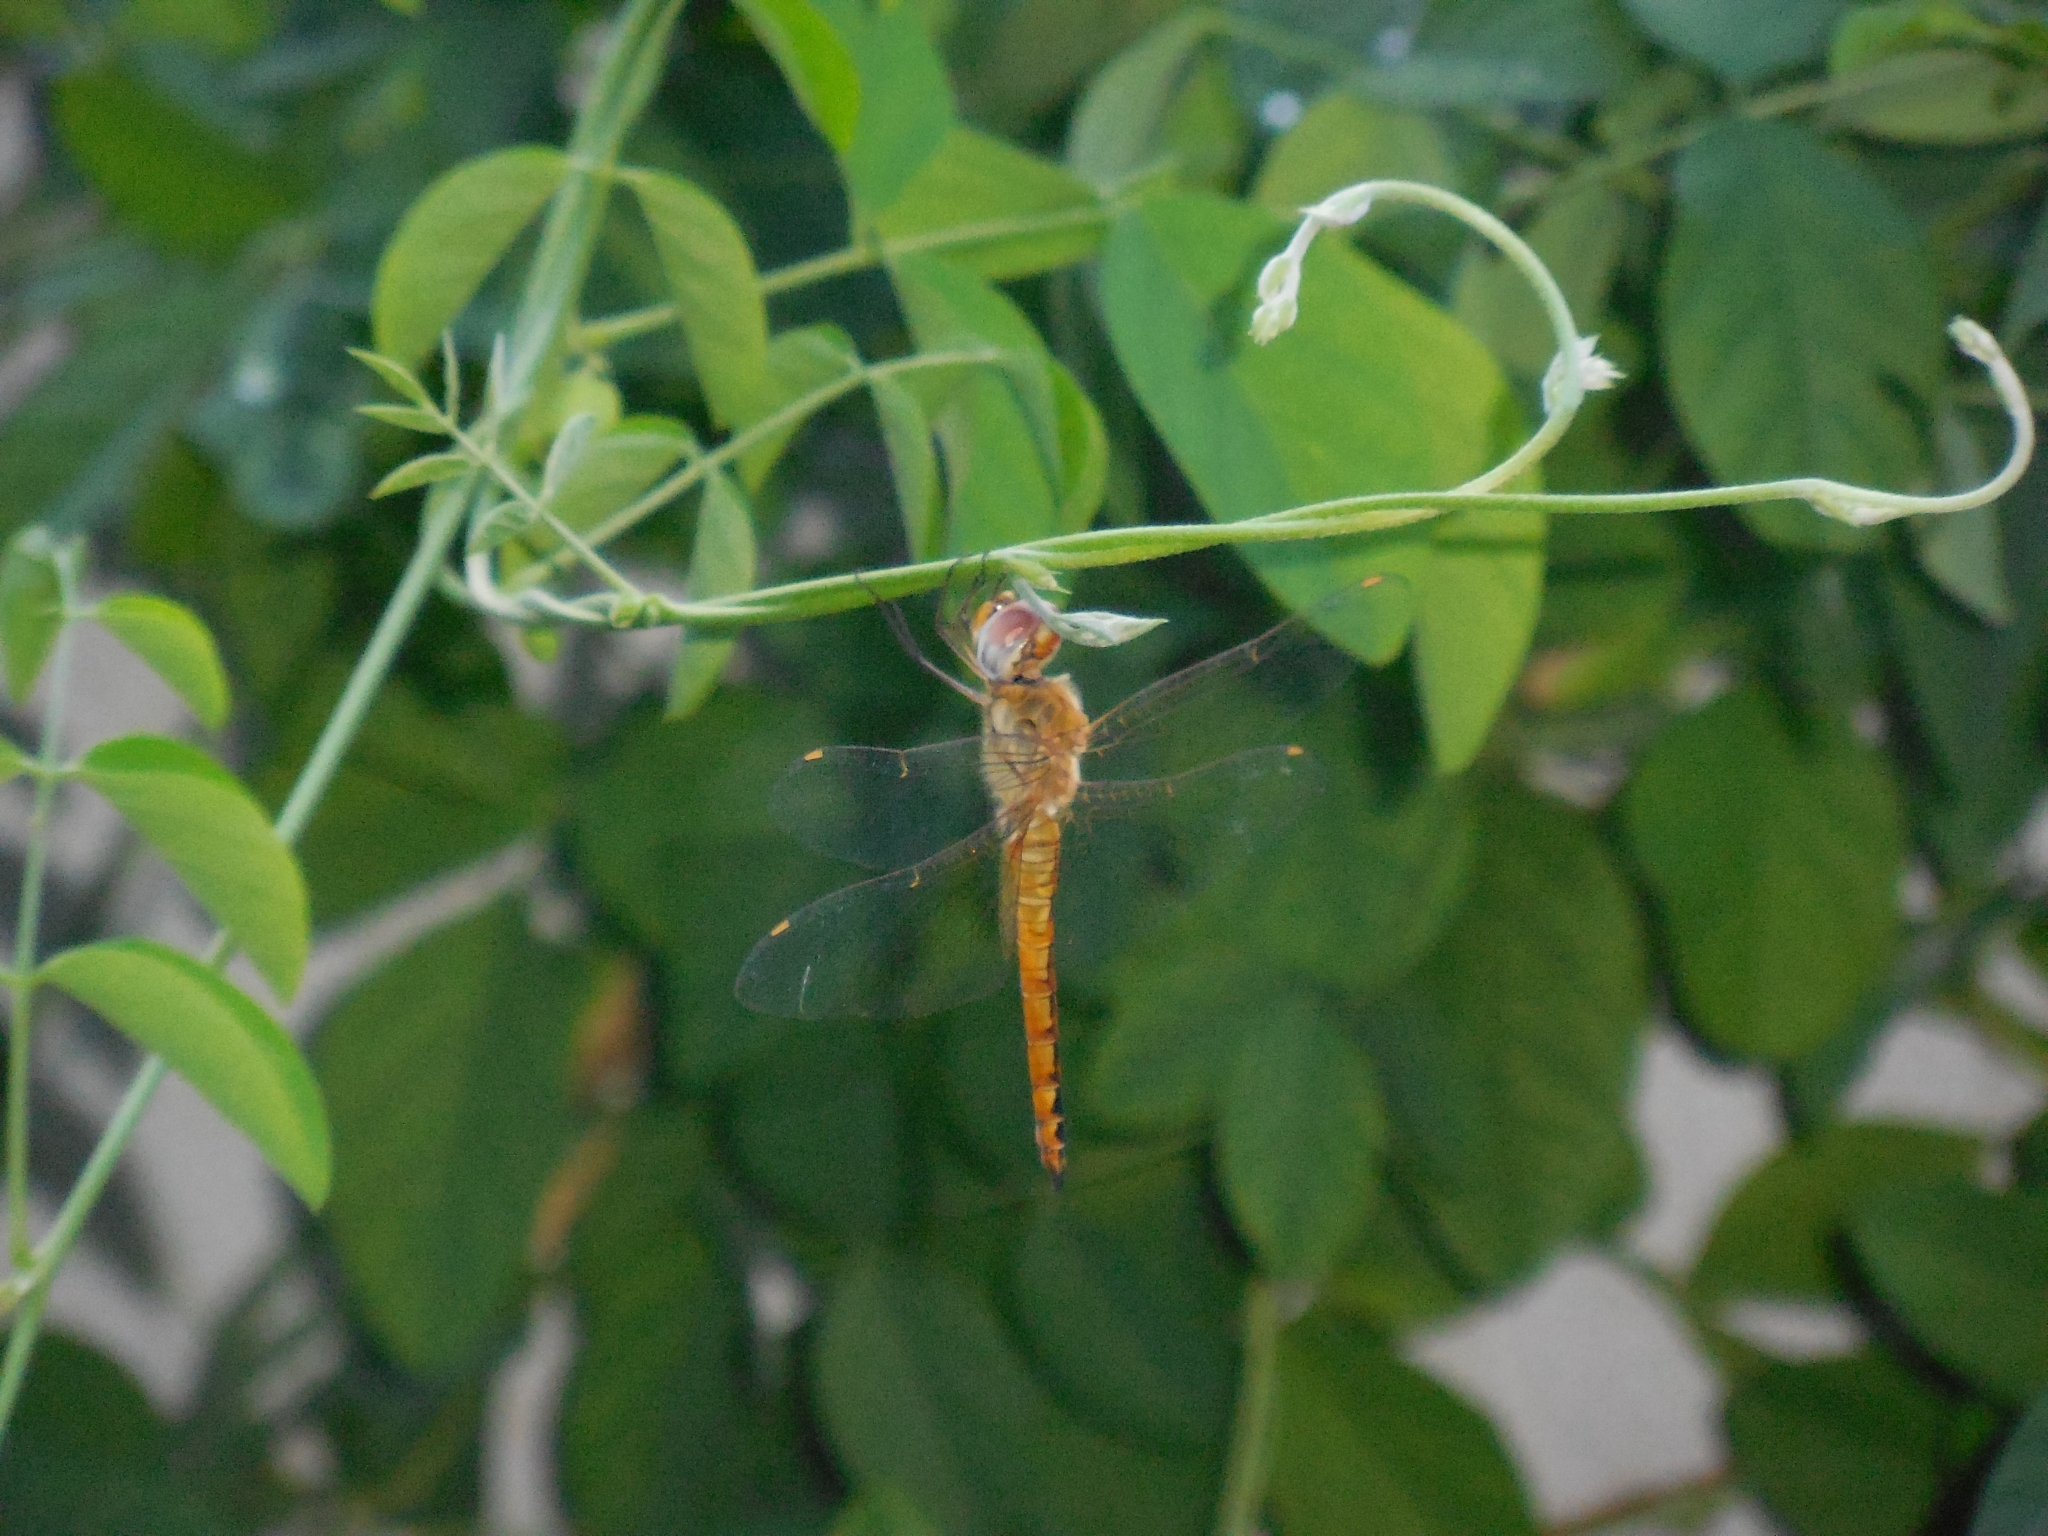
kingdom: Animalia
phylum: Arthropoda
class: Insecta
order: Odonata
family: Libellulidae
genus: Pantala
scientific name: Pantala flavescens
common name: Wandering glider
